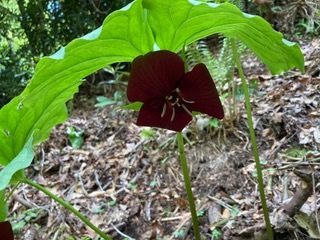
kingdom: Plantae
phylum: Tracheophyta
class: Liliopsida
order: Liliales
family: Melanthiaceae
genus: Trillium
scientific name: Trillium vaseyi
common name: Sweet trillium
